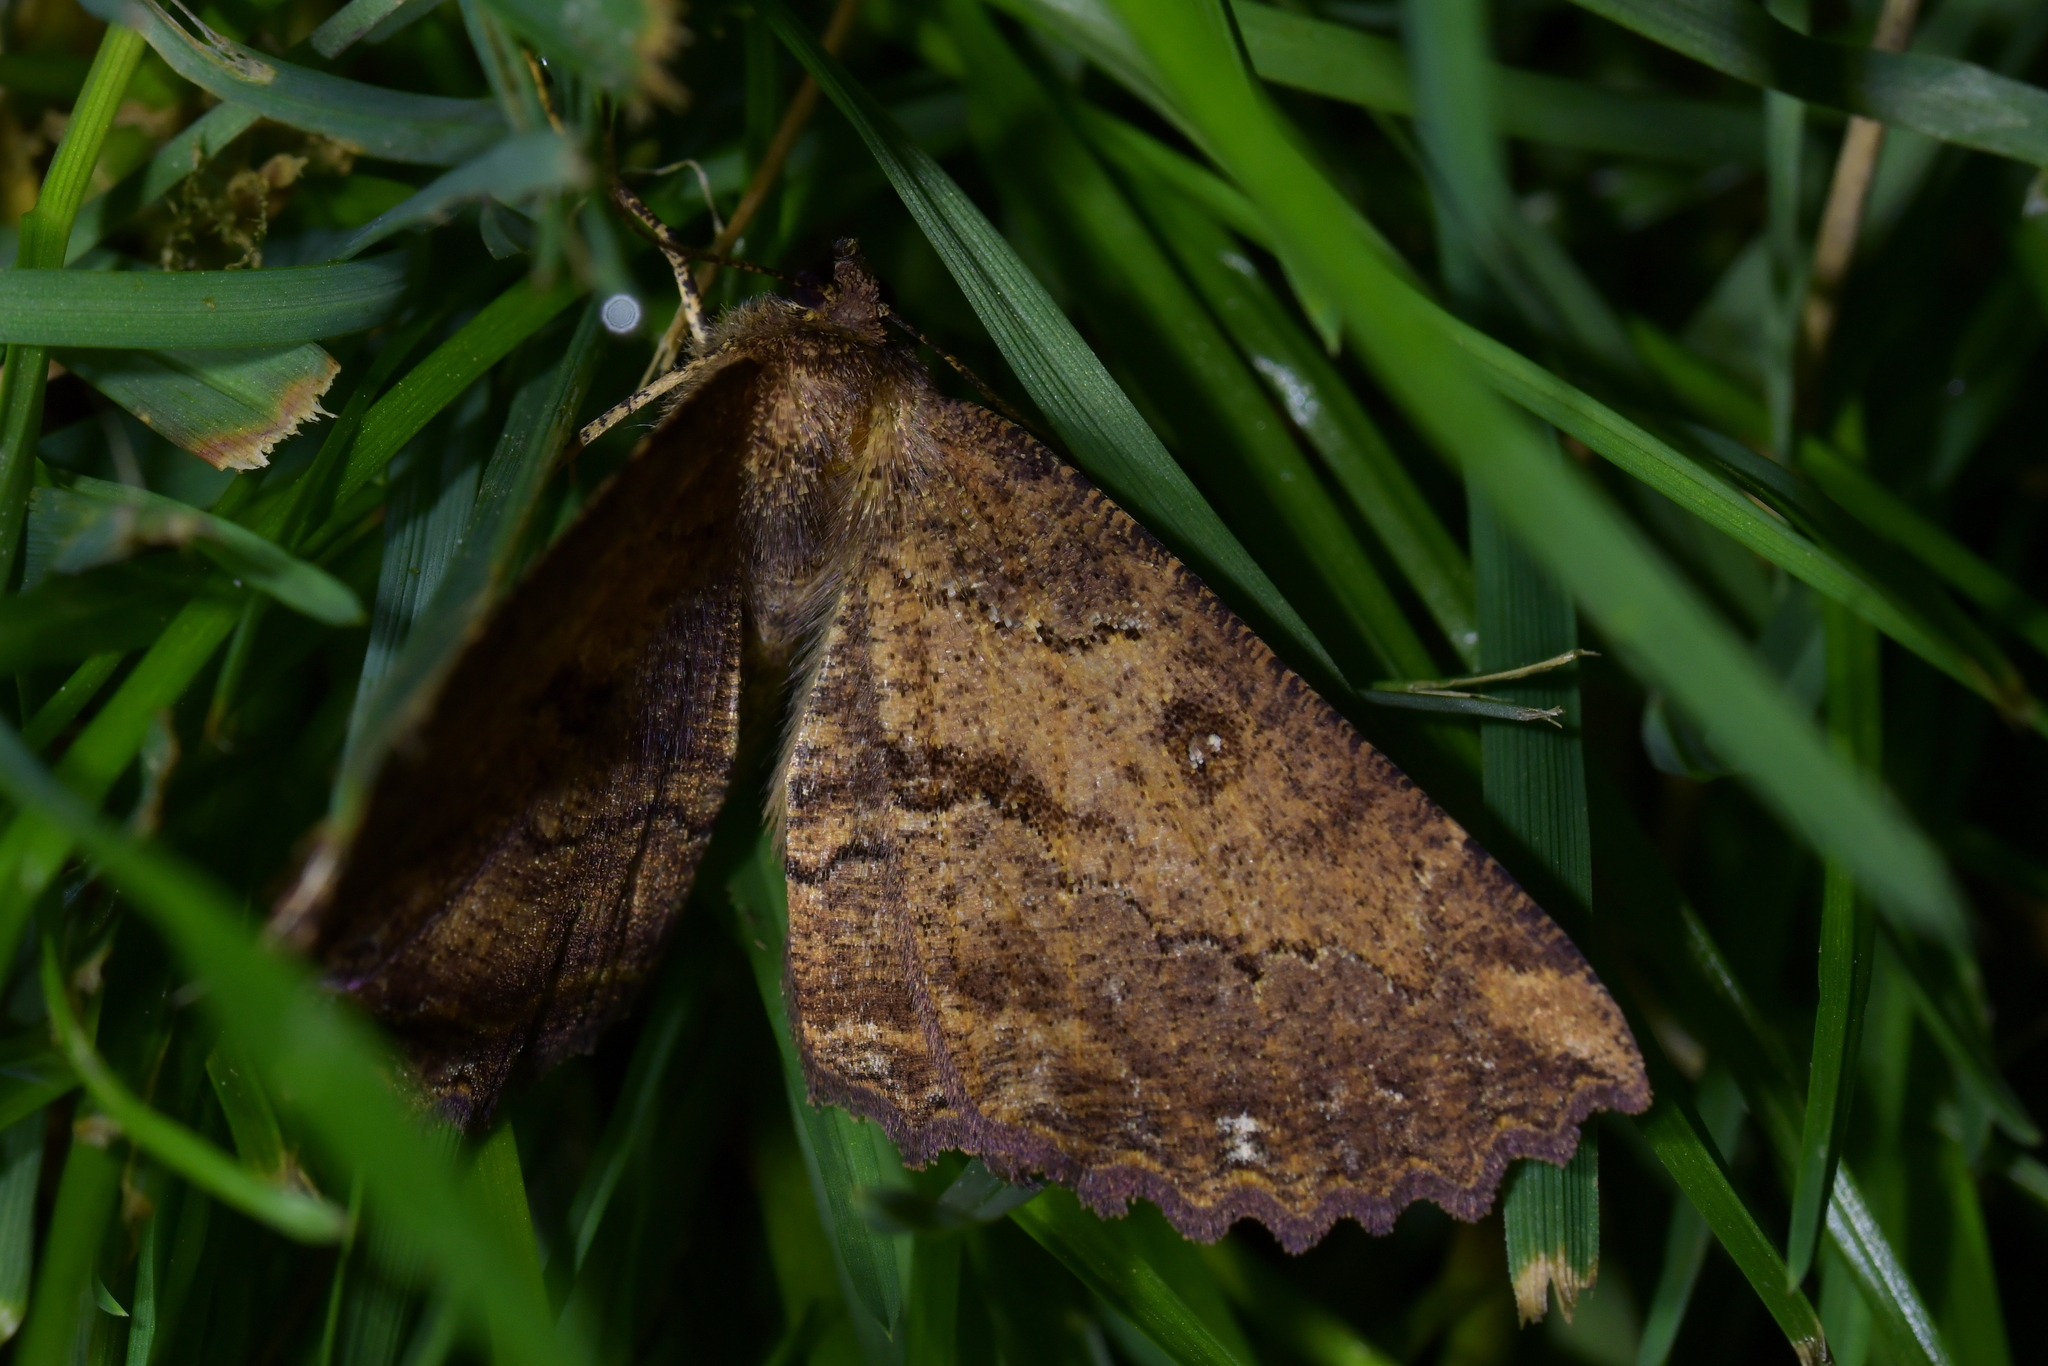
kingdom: Animalia
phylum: Arthropoda
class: Insecta
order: Lepidoptera
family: Geometridae
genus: Gellonia
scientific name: Gellonia dejectaria
